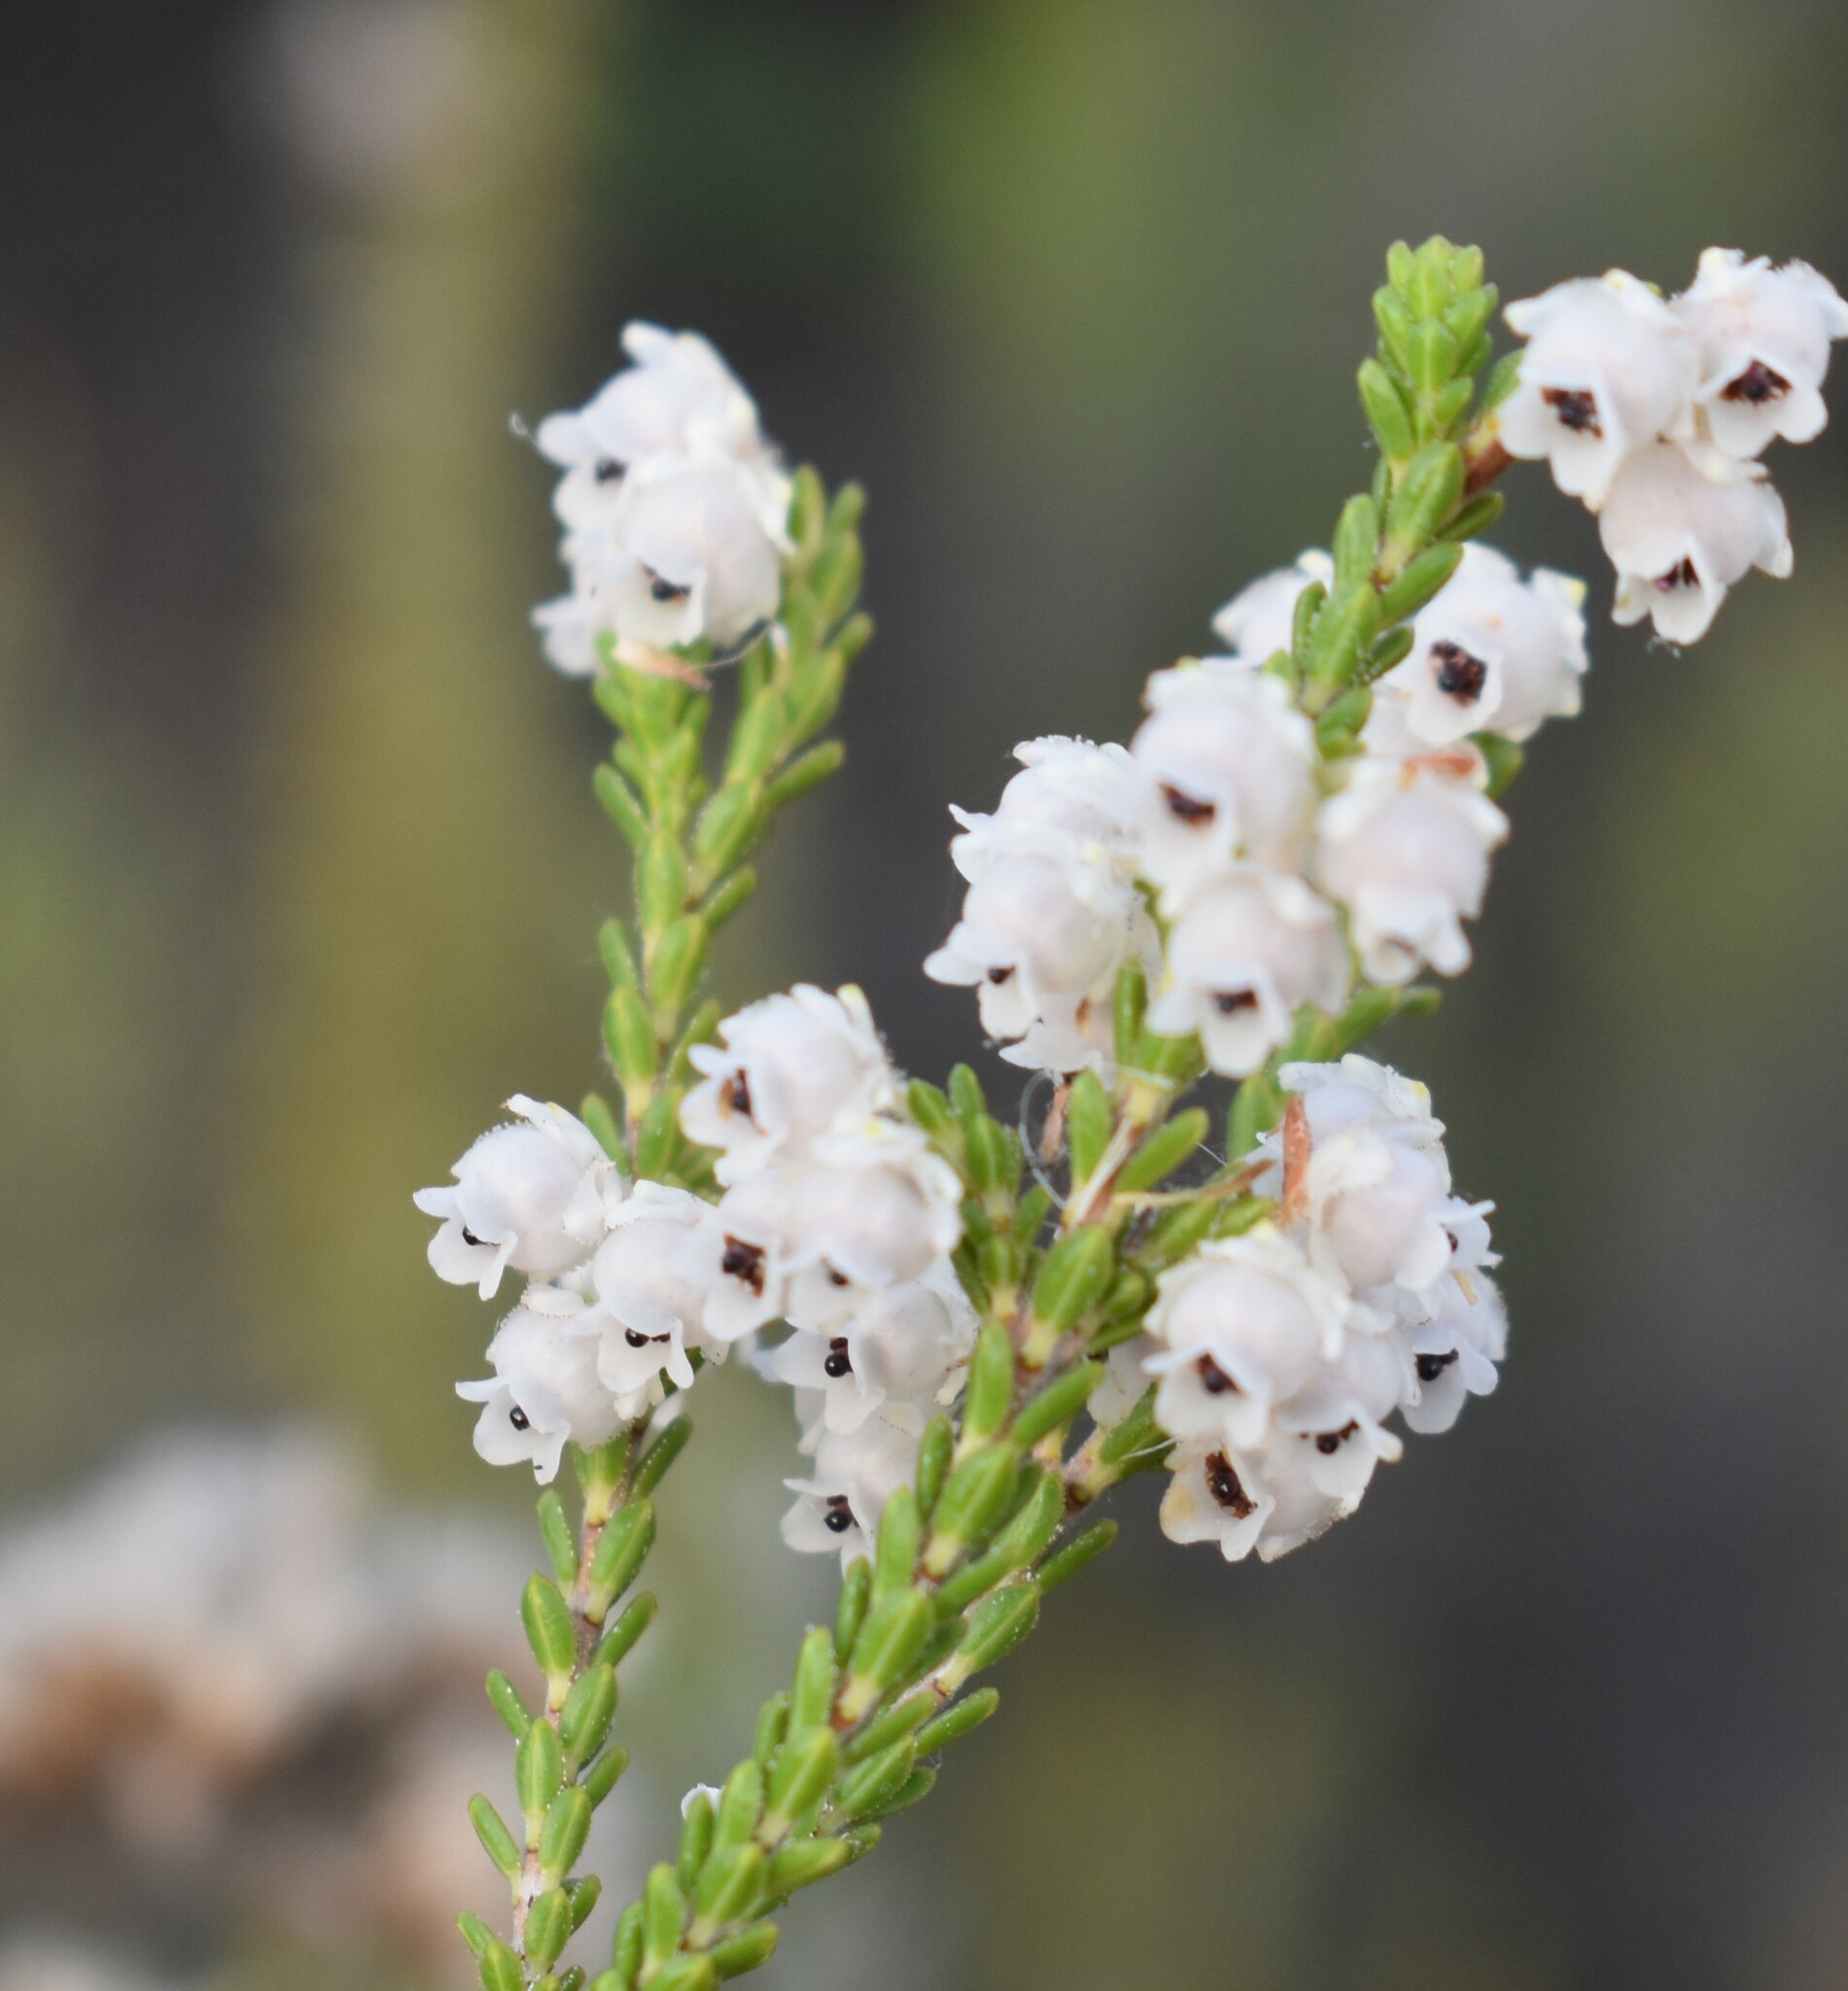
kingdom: Plantae
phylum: Tracheophyta
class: Magnoliopsida
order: Ericales
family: Ericaceae
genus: Erica
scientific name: Erica fimbriata
